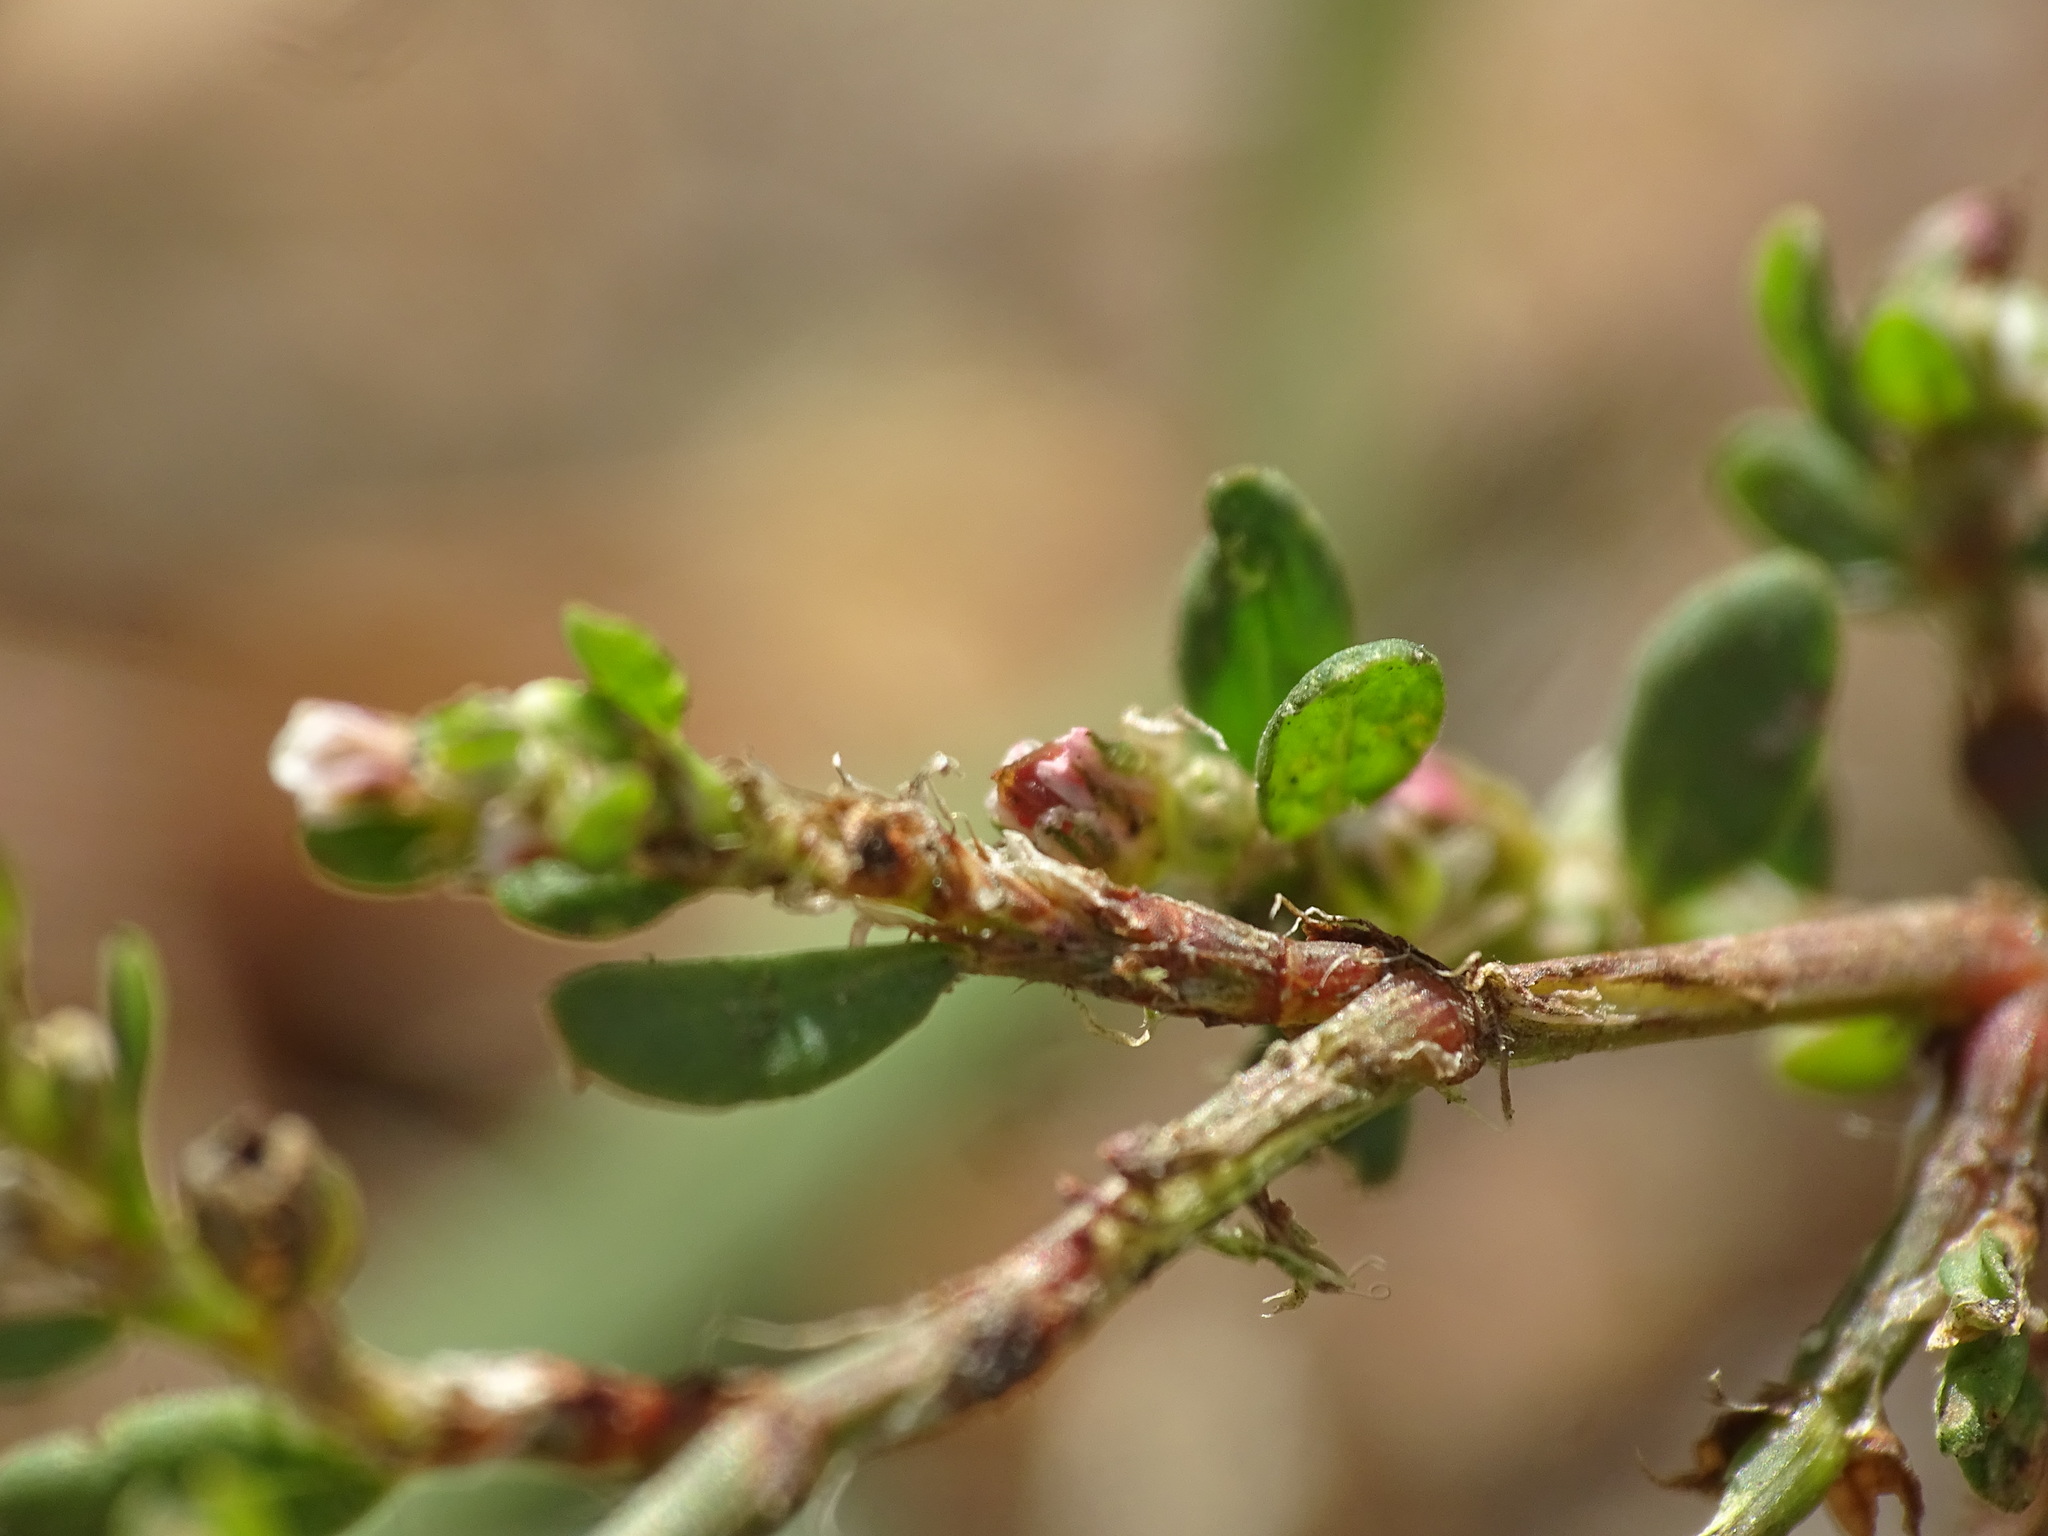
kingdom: Plantae
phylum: Tracheophyta
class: Magnoliopsida
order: Caryophyllales
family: Polygonaceae
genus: Polygonum
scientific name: Polygonum aviculare
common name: Prostrate knotweed
